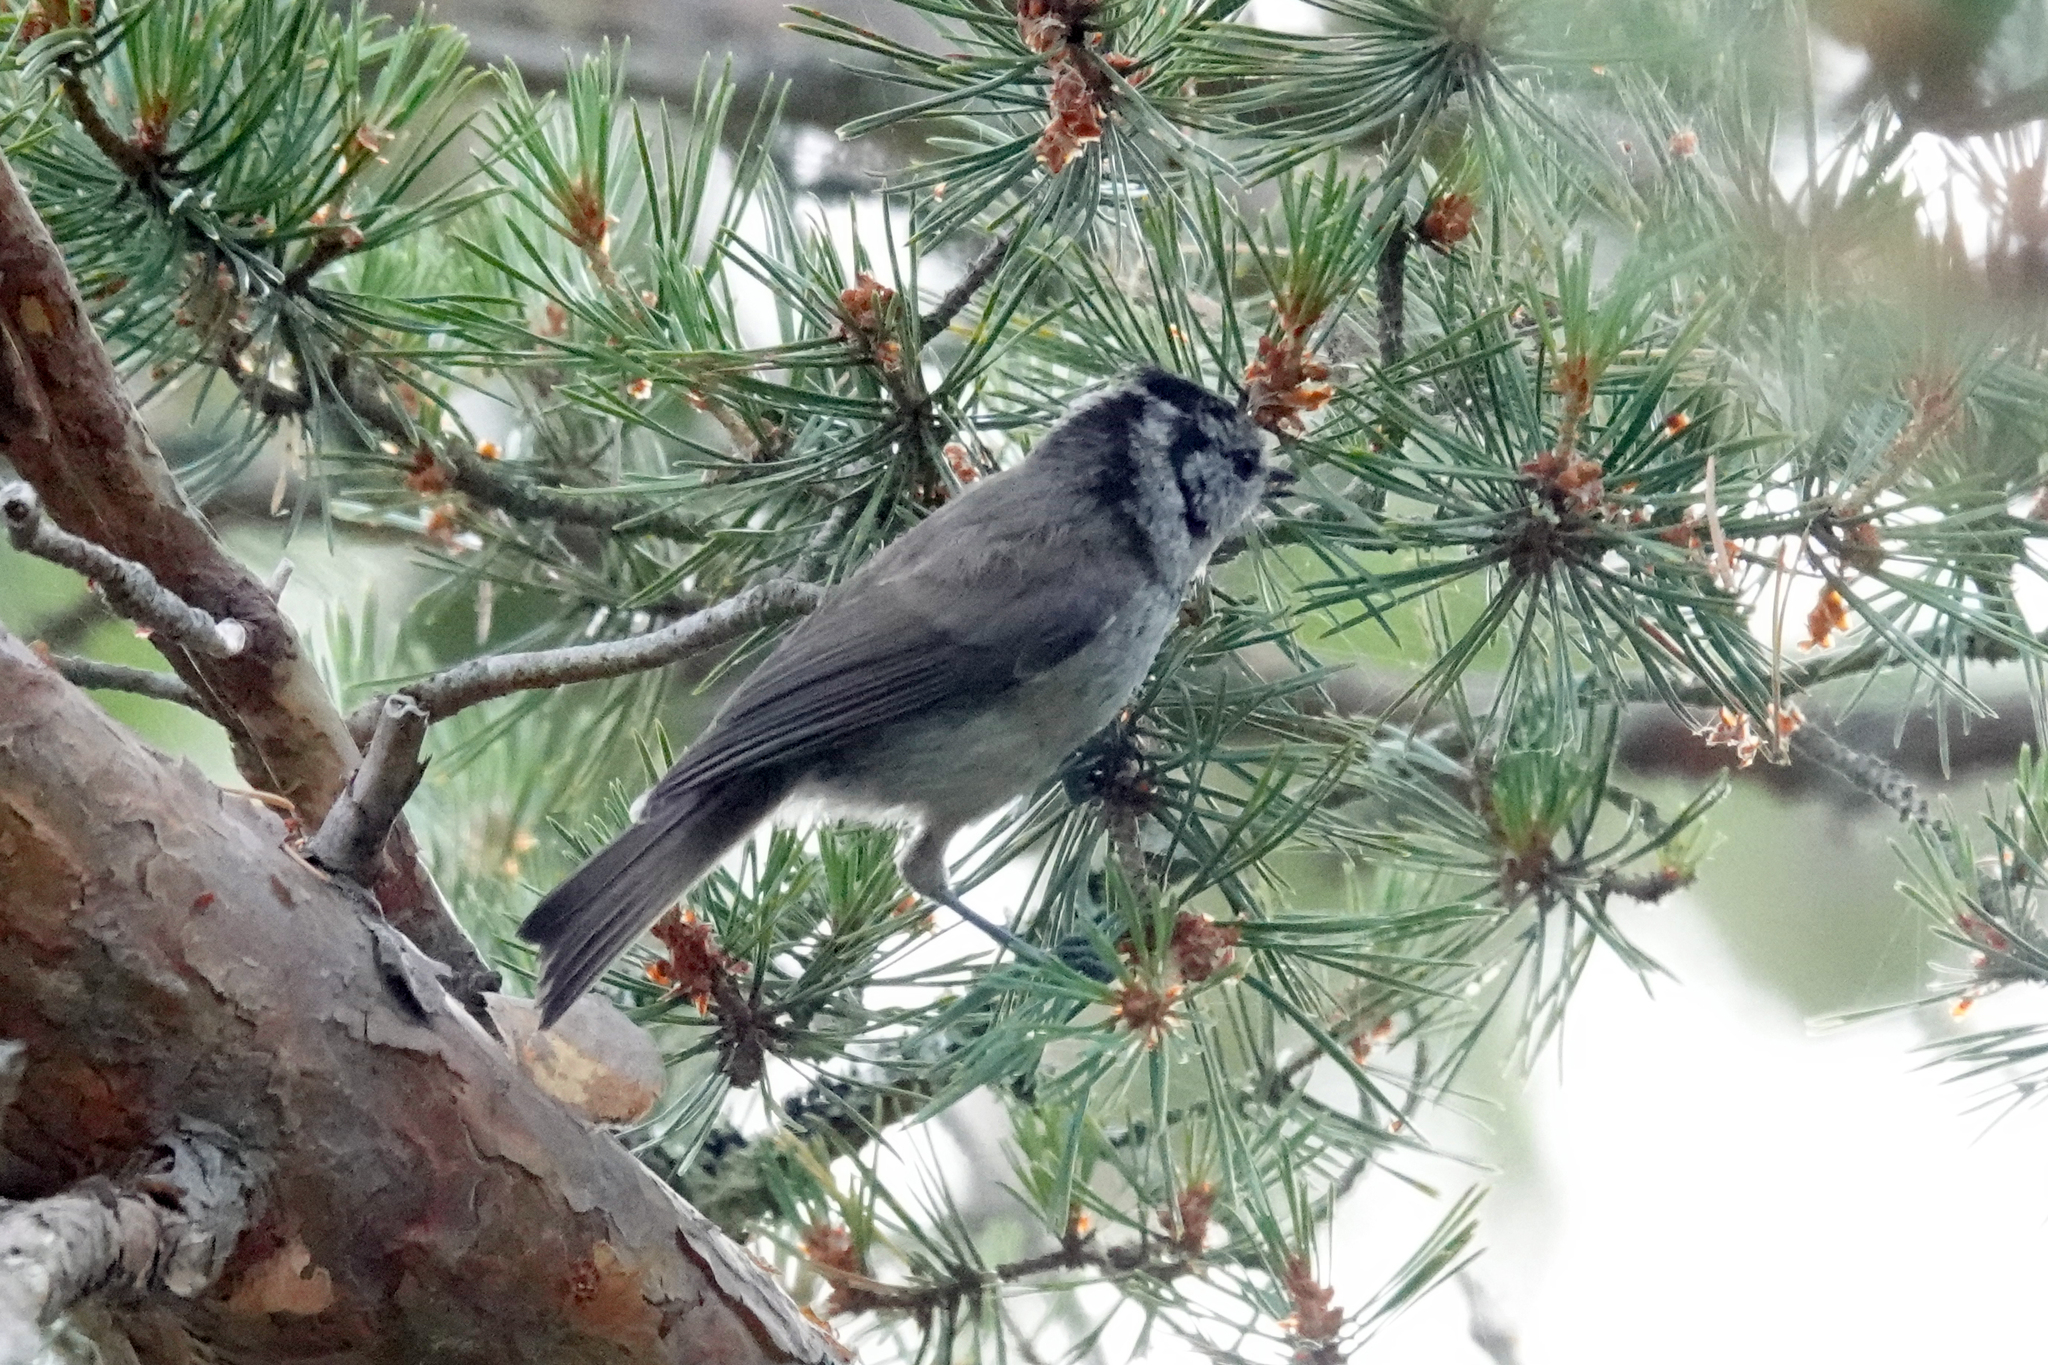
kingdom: Animalia
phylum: Chordata
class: Aves
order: Passeriformes
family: Paridae
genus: Lophophanes
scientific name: Lophophanes cristatus
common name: European crested tit
